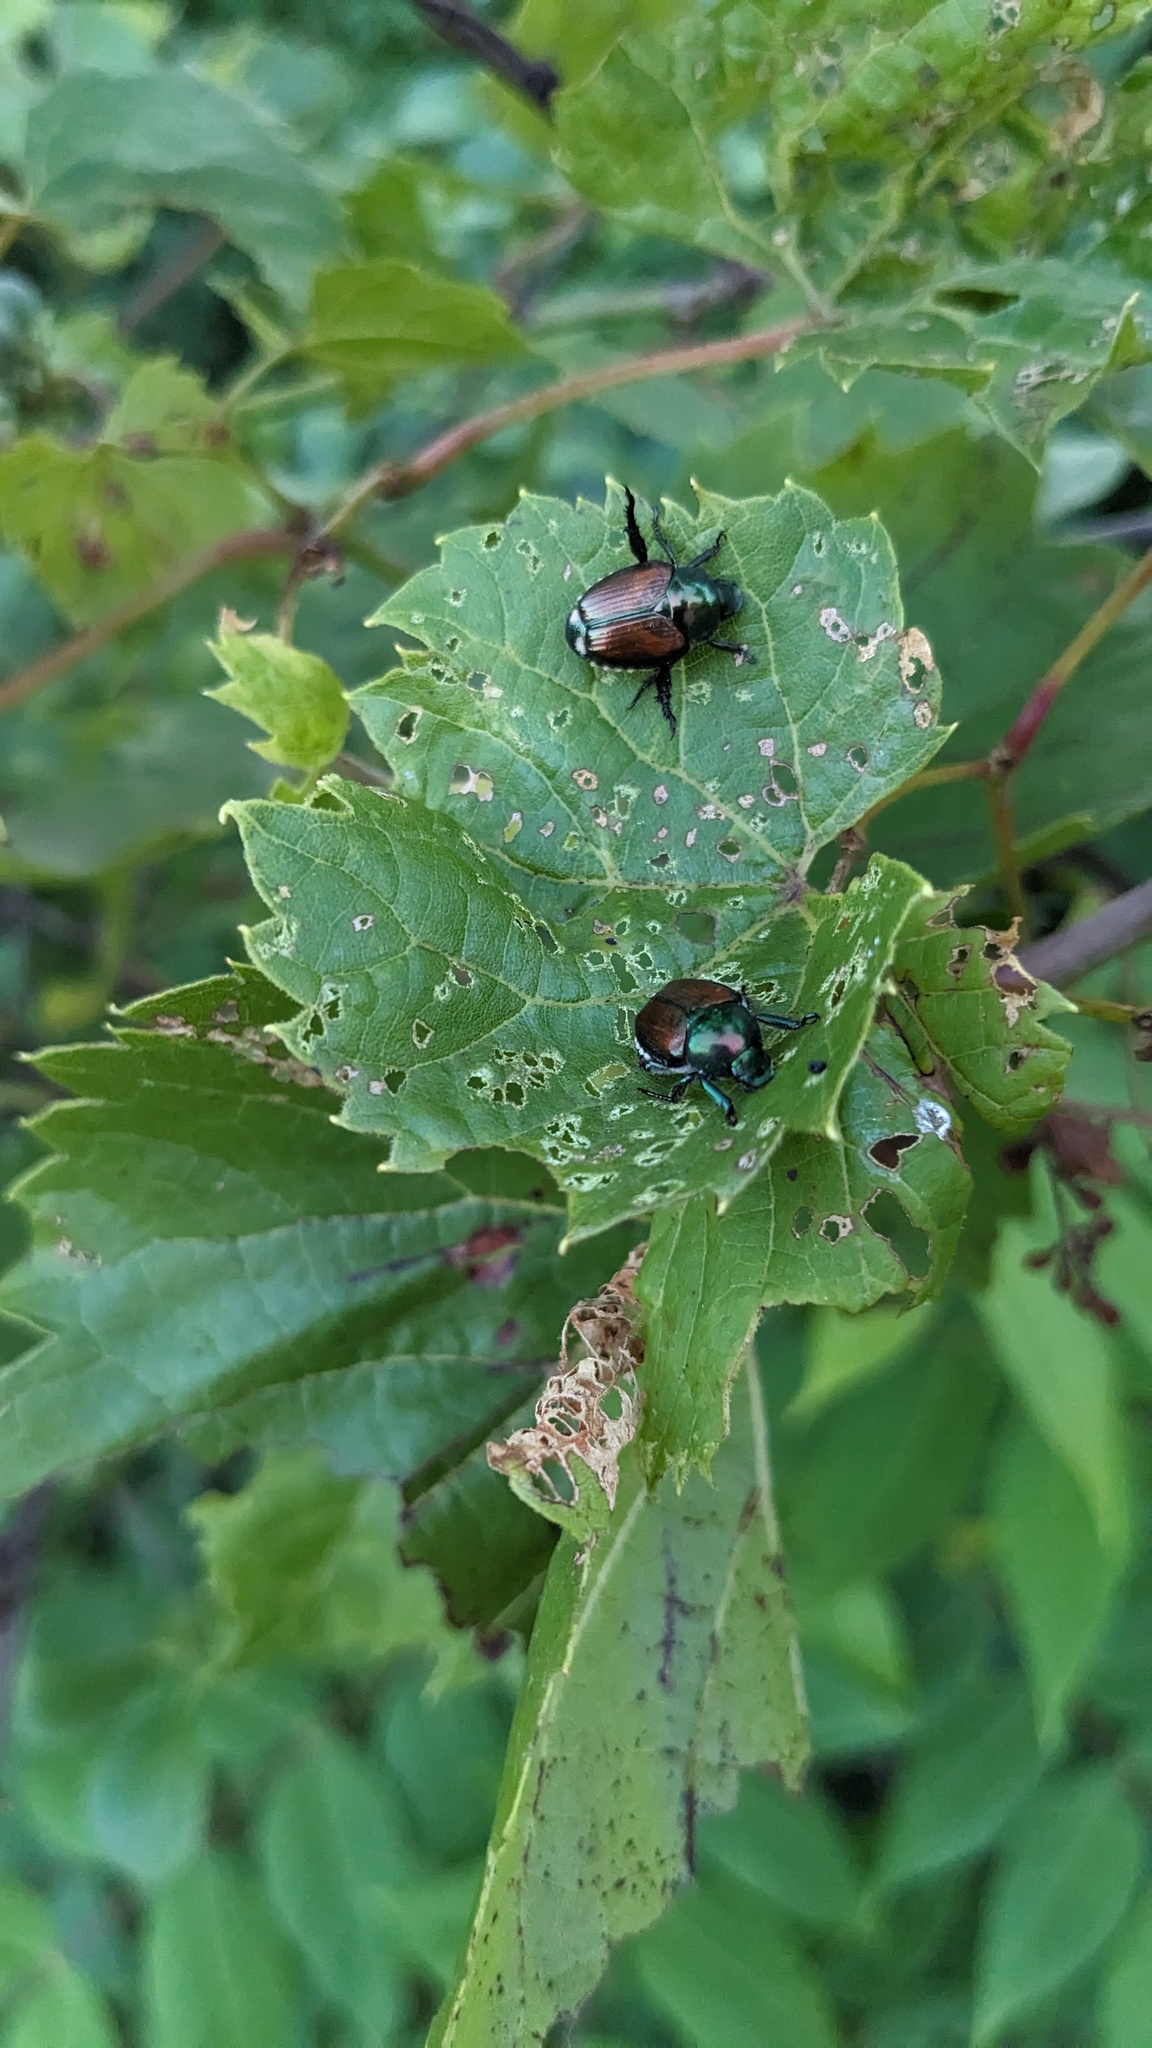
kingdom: Animalia
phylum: Arthropoda
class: Insecta
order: Coleoptera
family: Scarabaeidae
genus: Popillia
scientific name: Popillia japonica
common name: Japanese beetle
